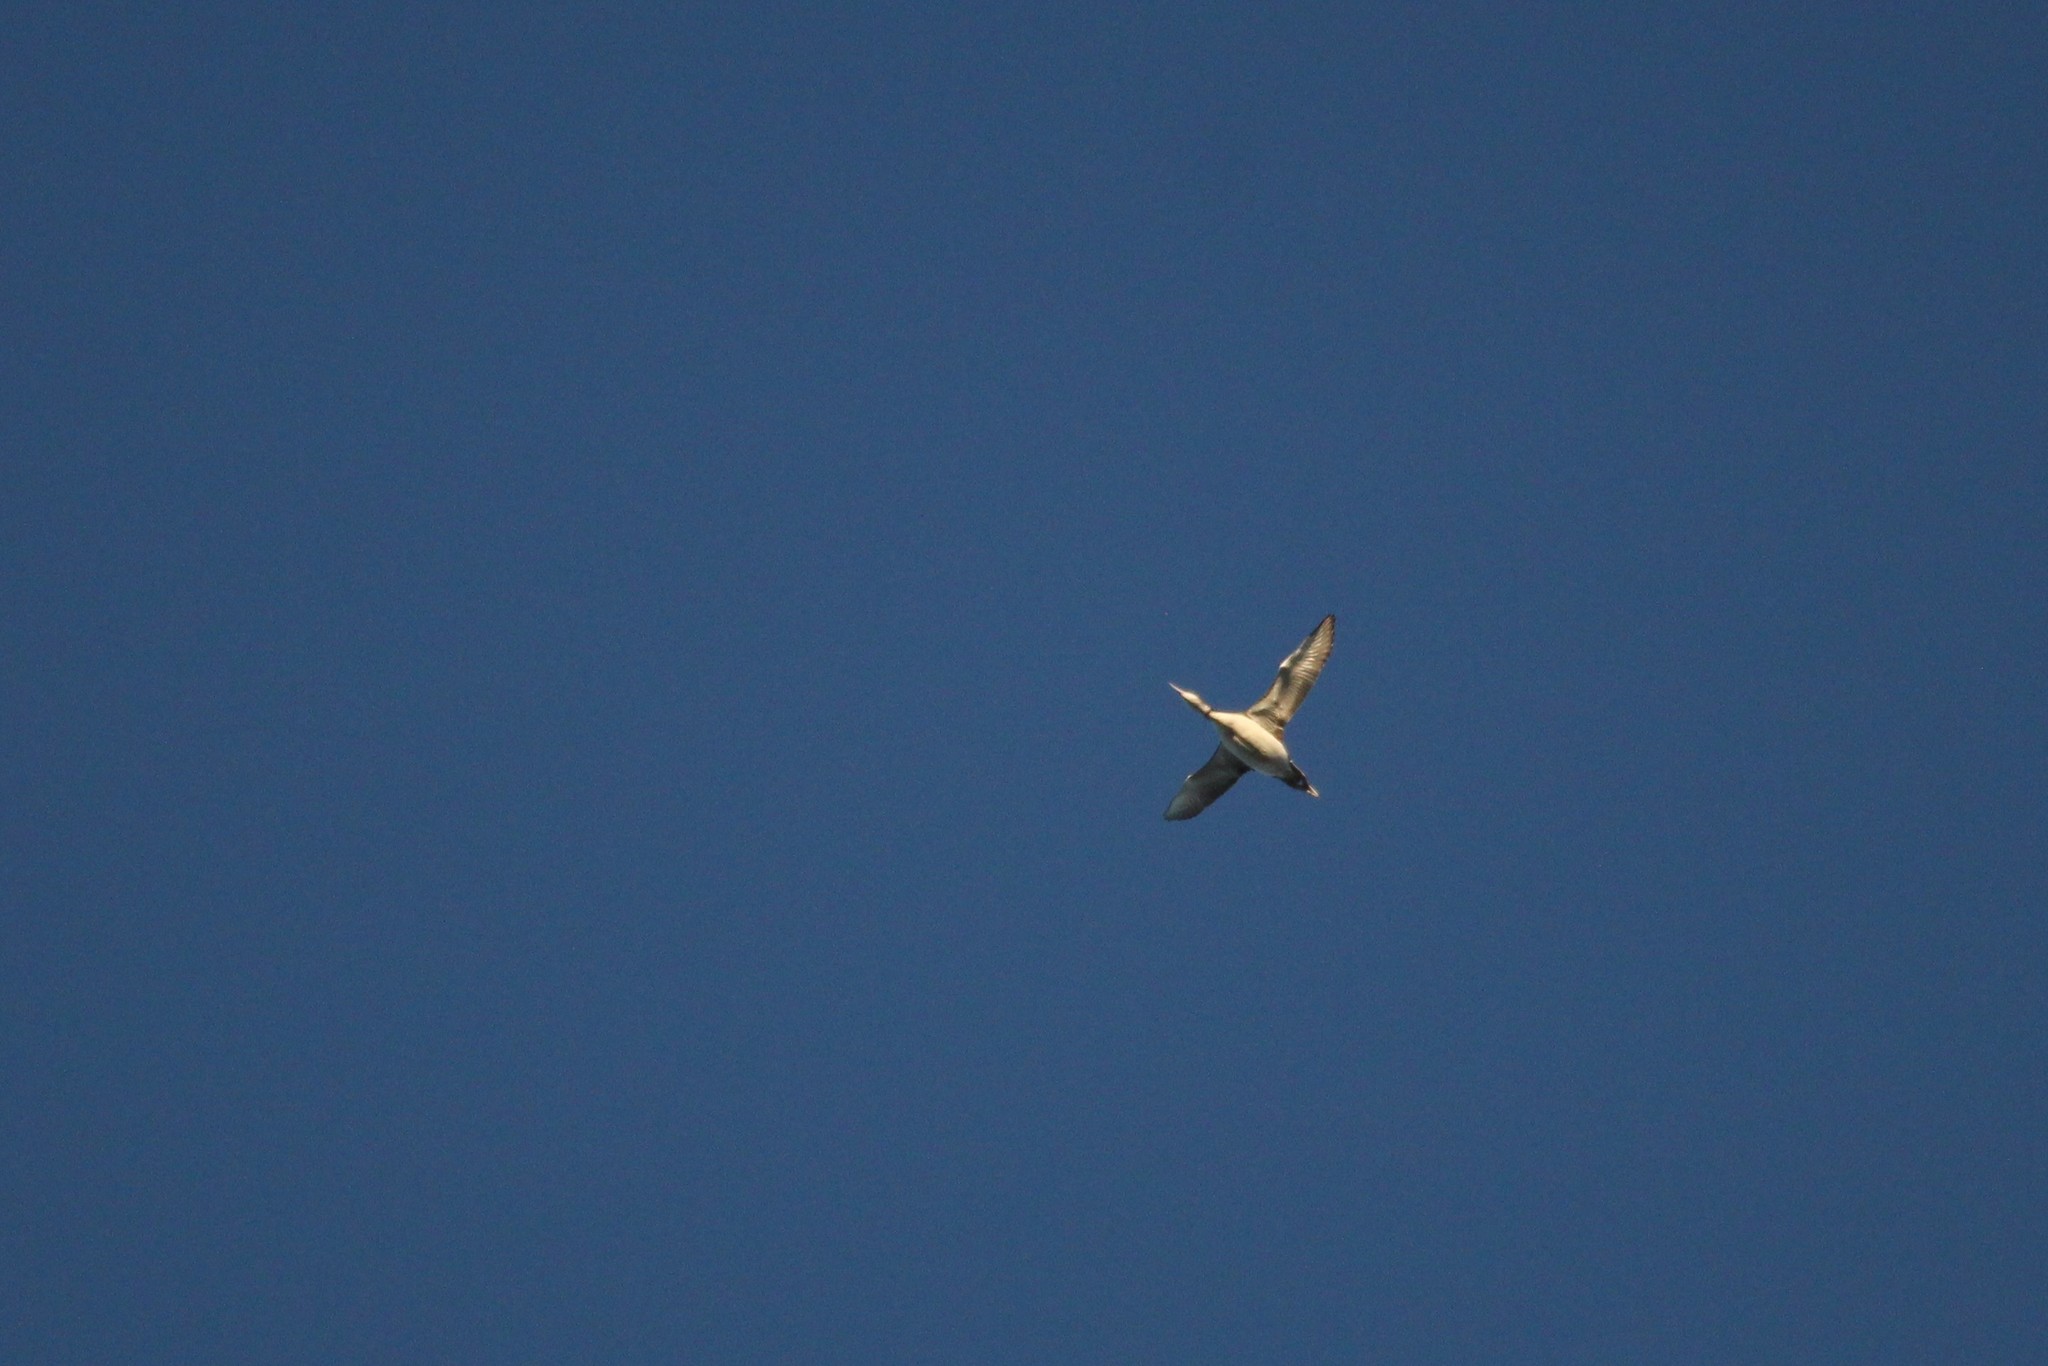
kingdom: Animalia
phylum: Chordata
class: Aves
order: Gaviiformes
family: Gaviidae
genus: Gavia
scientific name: Gavia immer
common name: Common loon
